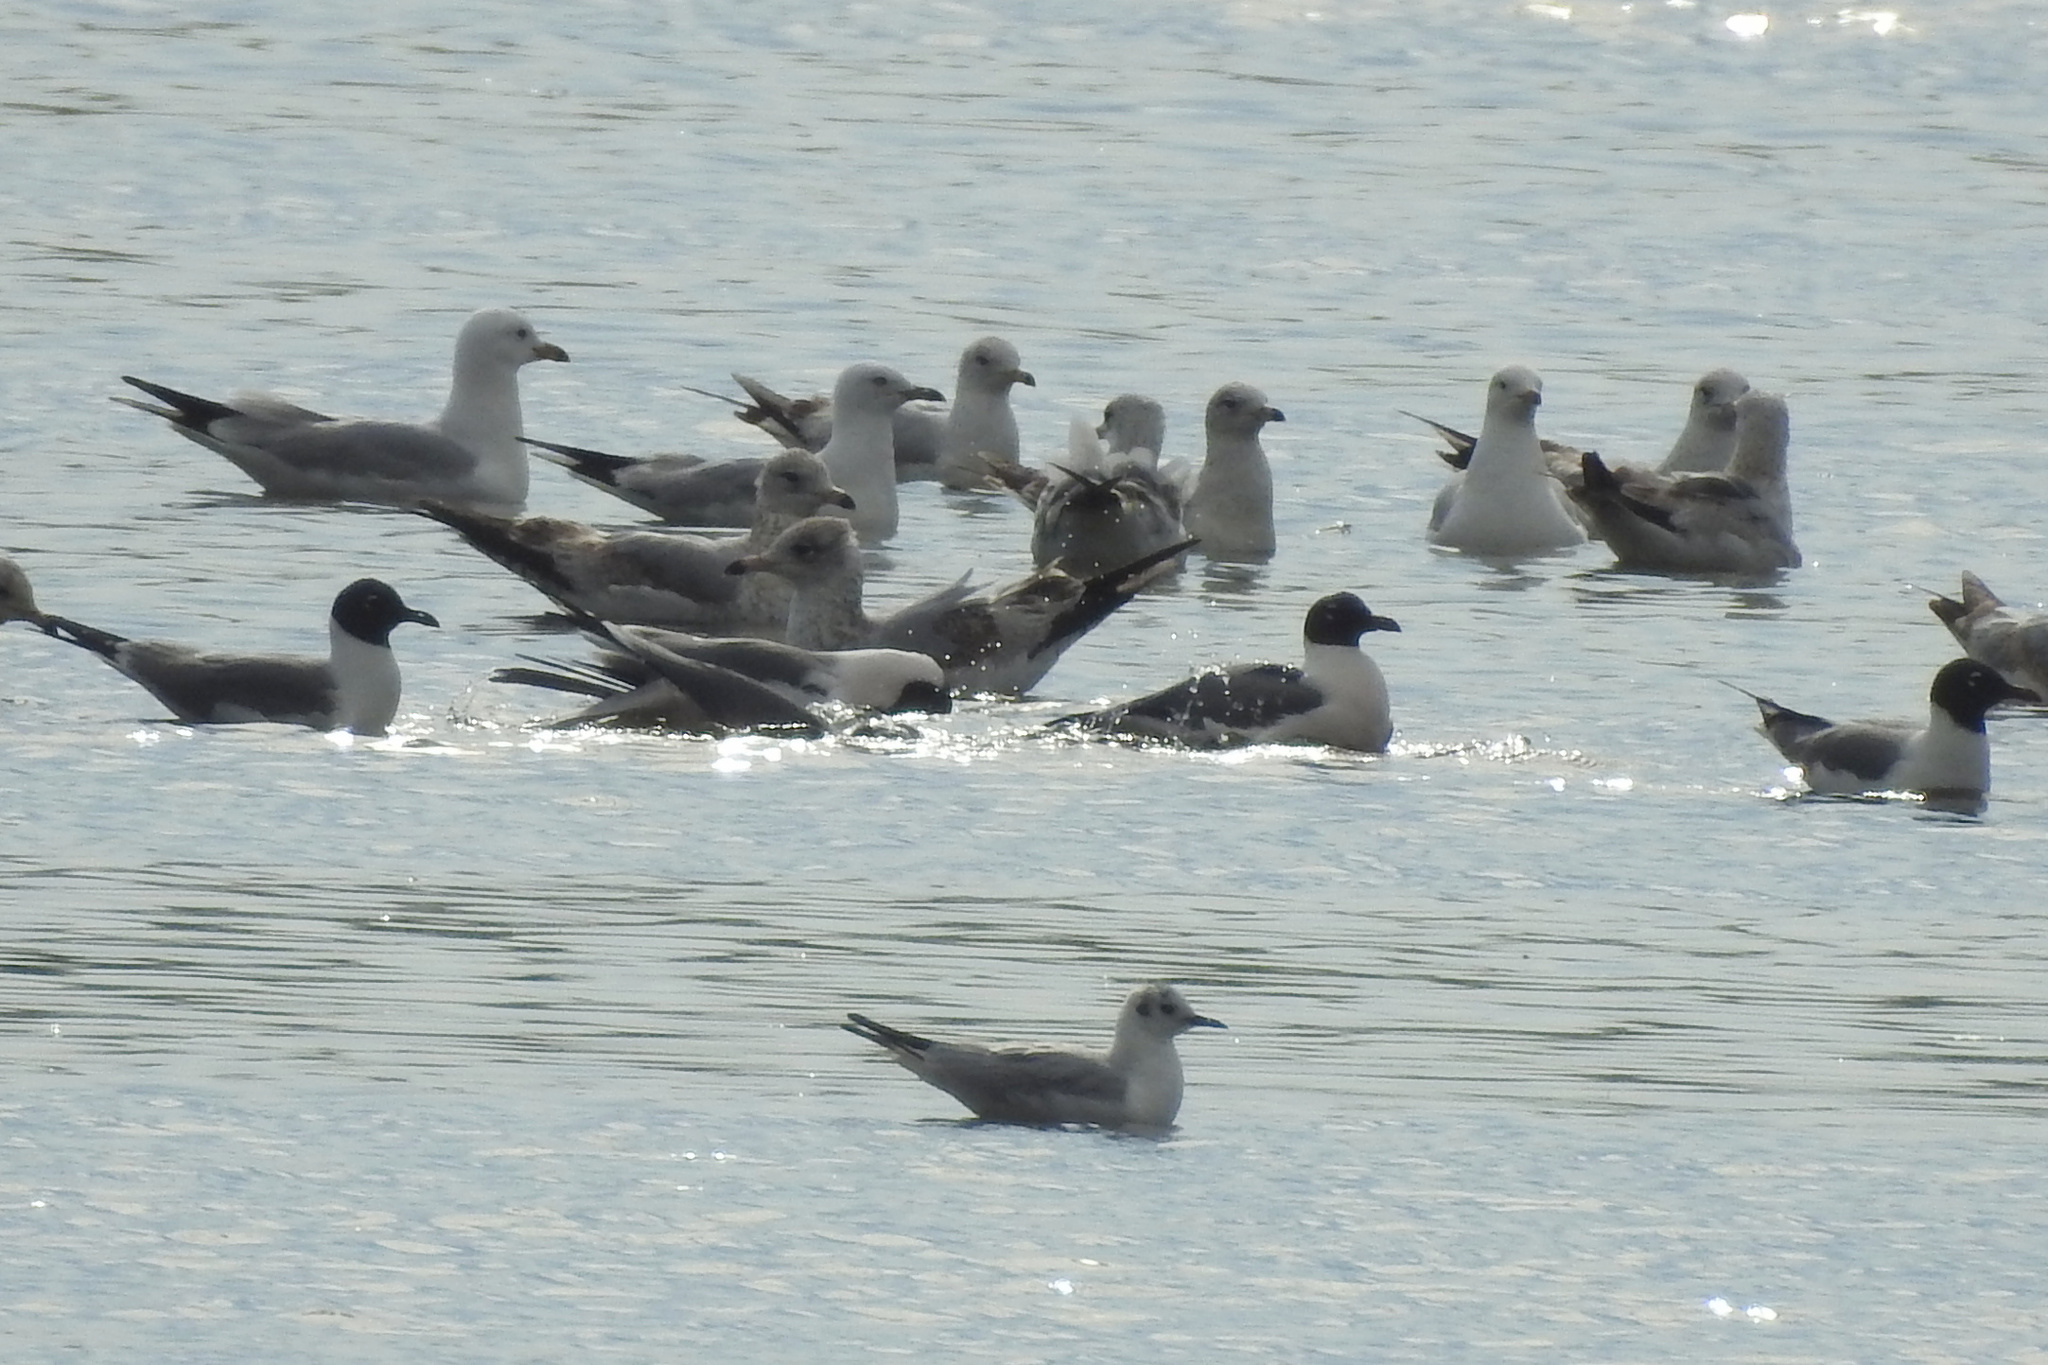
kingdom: Animalia
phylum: Chordata
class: Aves
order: Charadriiformes
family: Laridae
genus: Leucophaeus
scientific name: Leucophaeus atricilla
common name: Laughing gull
